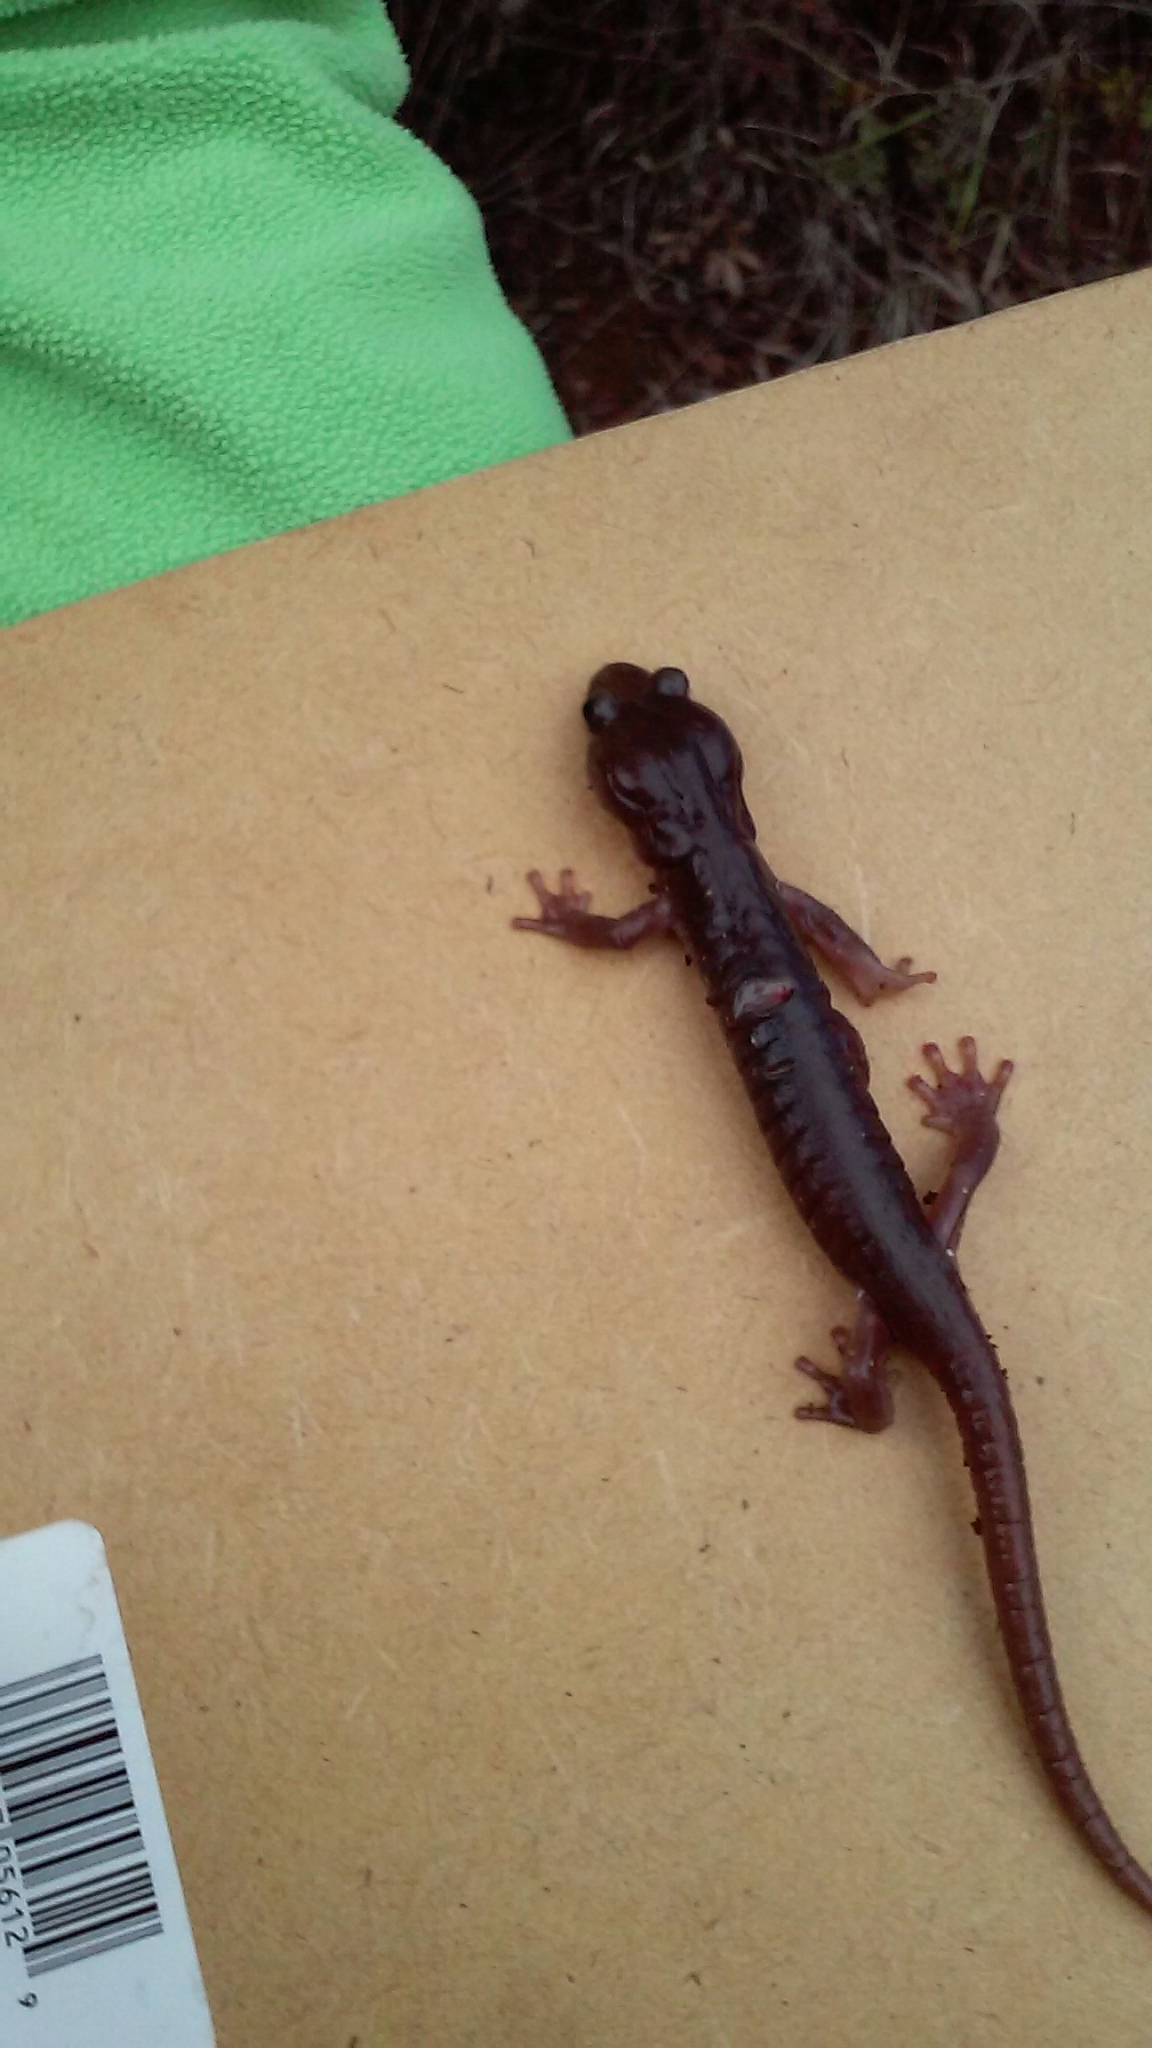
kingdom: Animalia
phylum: Chordata
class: Amphibia
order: Caudata
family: Plethodontidae
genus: Aneides
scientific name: Aneides lugubris
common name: Arboreal salamander
